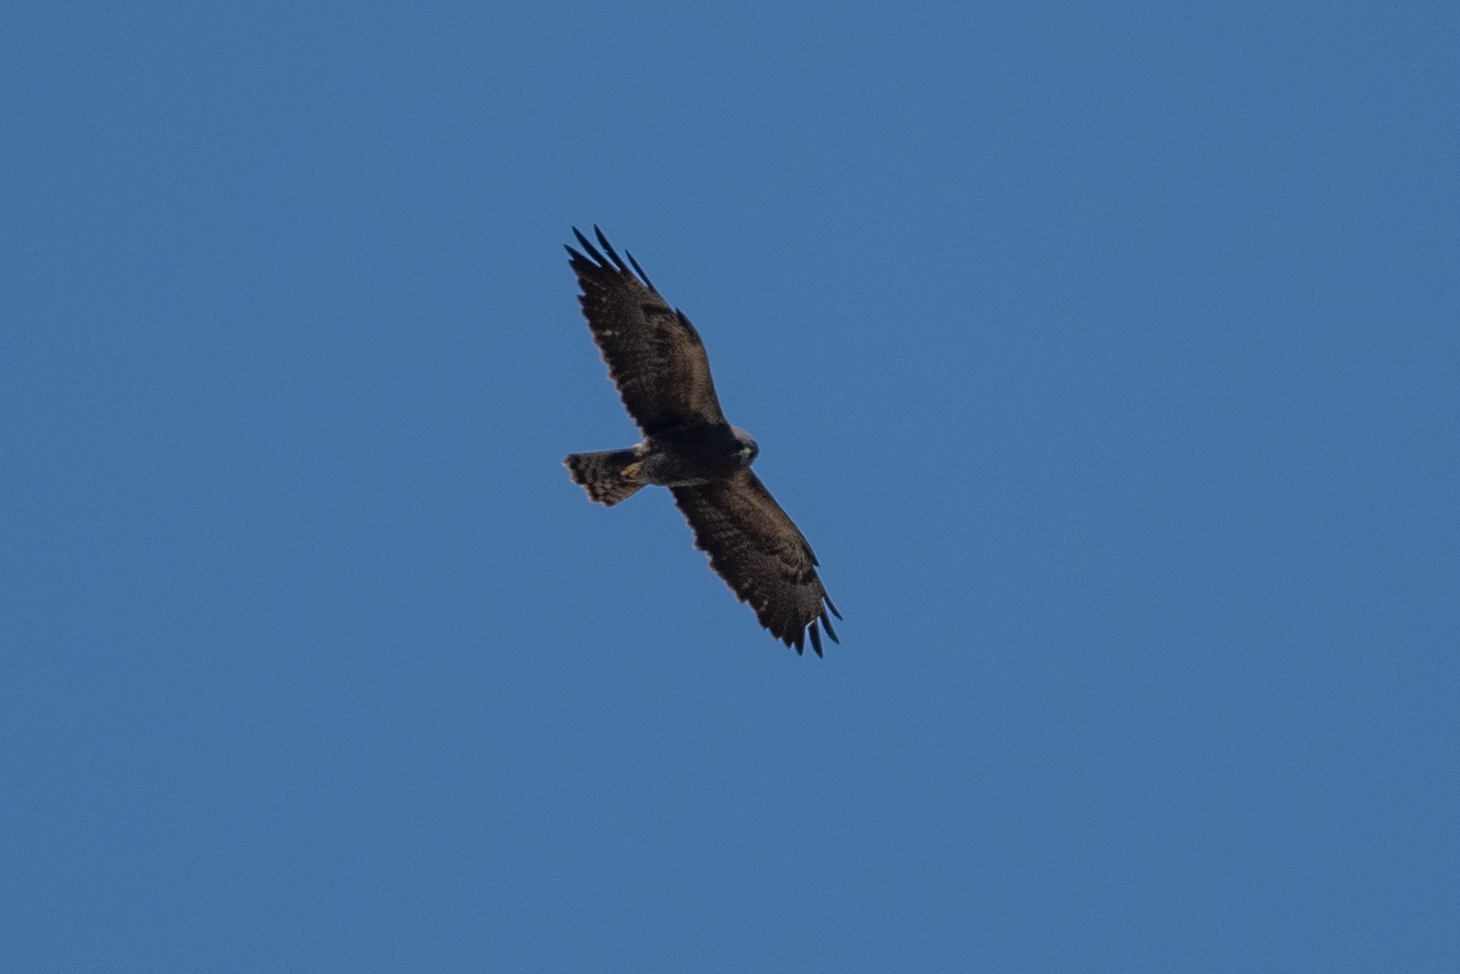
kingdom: Animalia
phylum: Chordata
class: Aves
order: Accipitriformes
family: Accipitridae
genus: Buteo
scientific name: Buteo swainsoni
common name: Swainson's hawk
